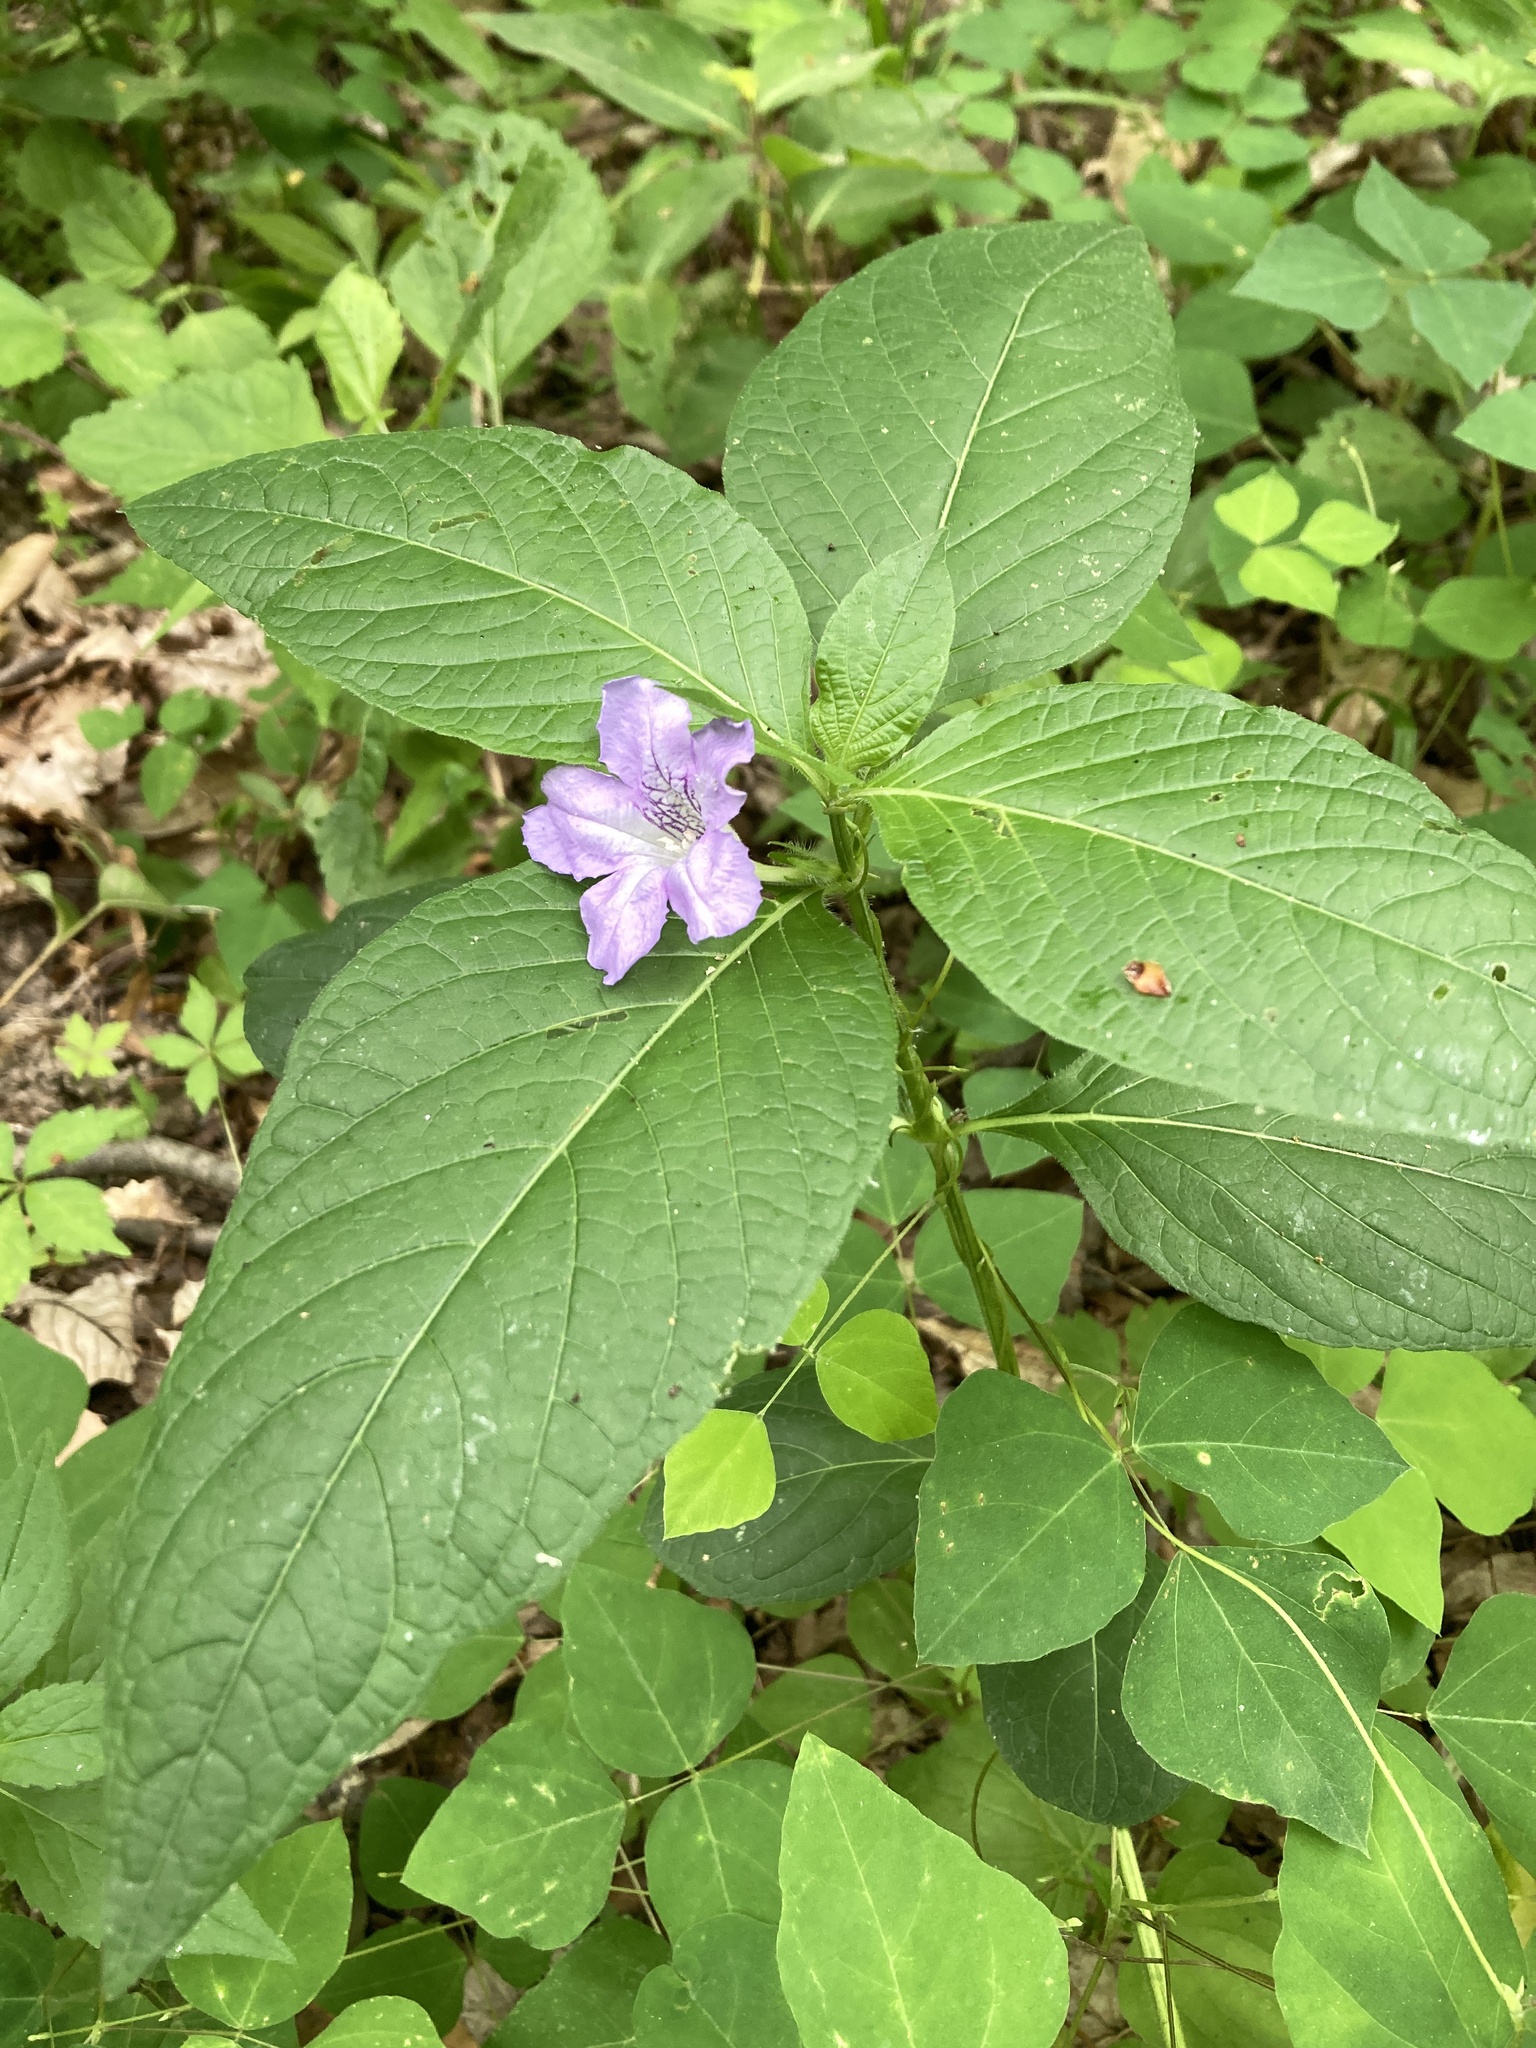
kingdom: Plantae
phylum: Tracheophyta
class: Magnoliopsida
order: Lamiales
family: Acanthaceae
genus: Ruellia
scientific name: Ruellia strepens
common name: Limestone wild petunia
